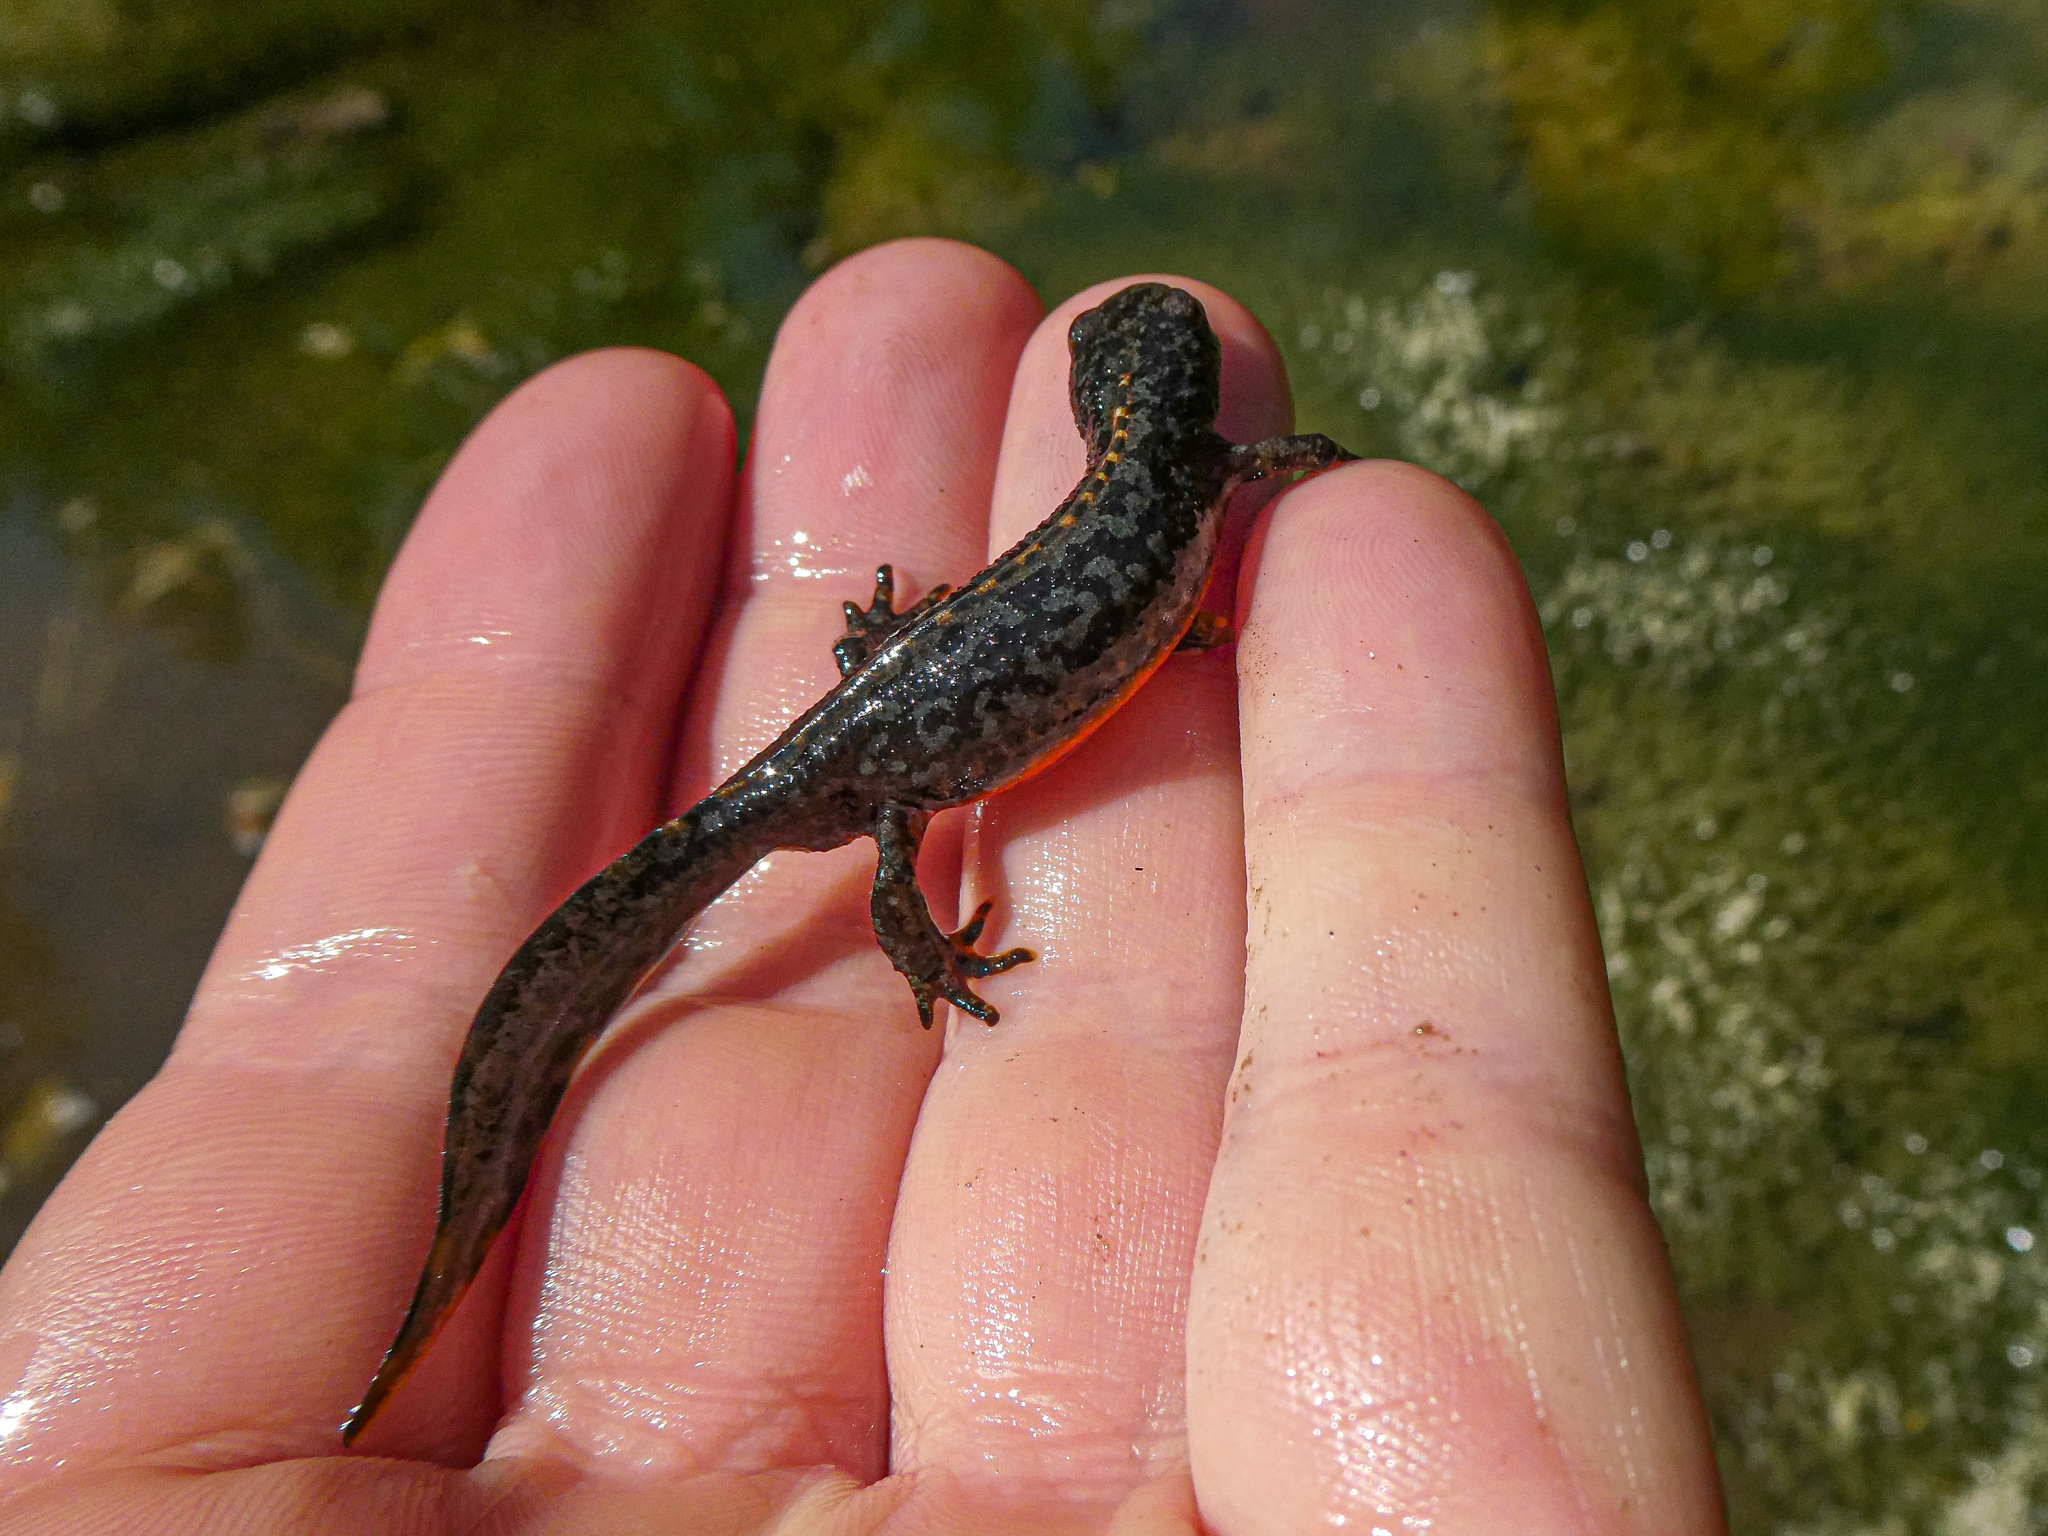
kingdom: Animalia
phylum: Chordata
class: Amphibia
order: Caudata
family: Salamandridae
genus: Ichthyosaura
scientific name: Ichthyosaura alpestris
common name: Alpine newt
